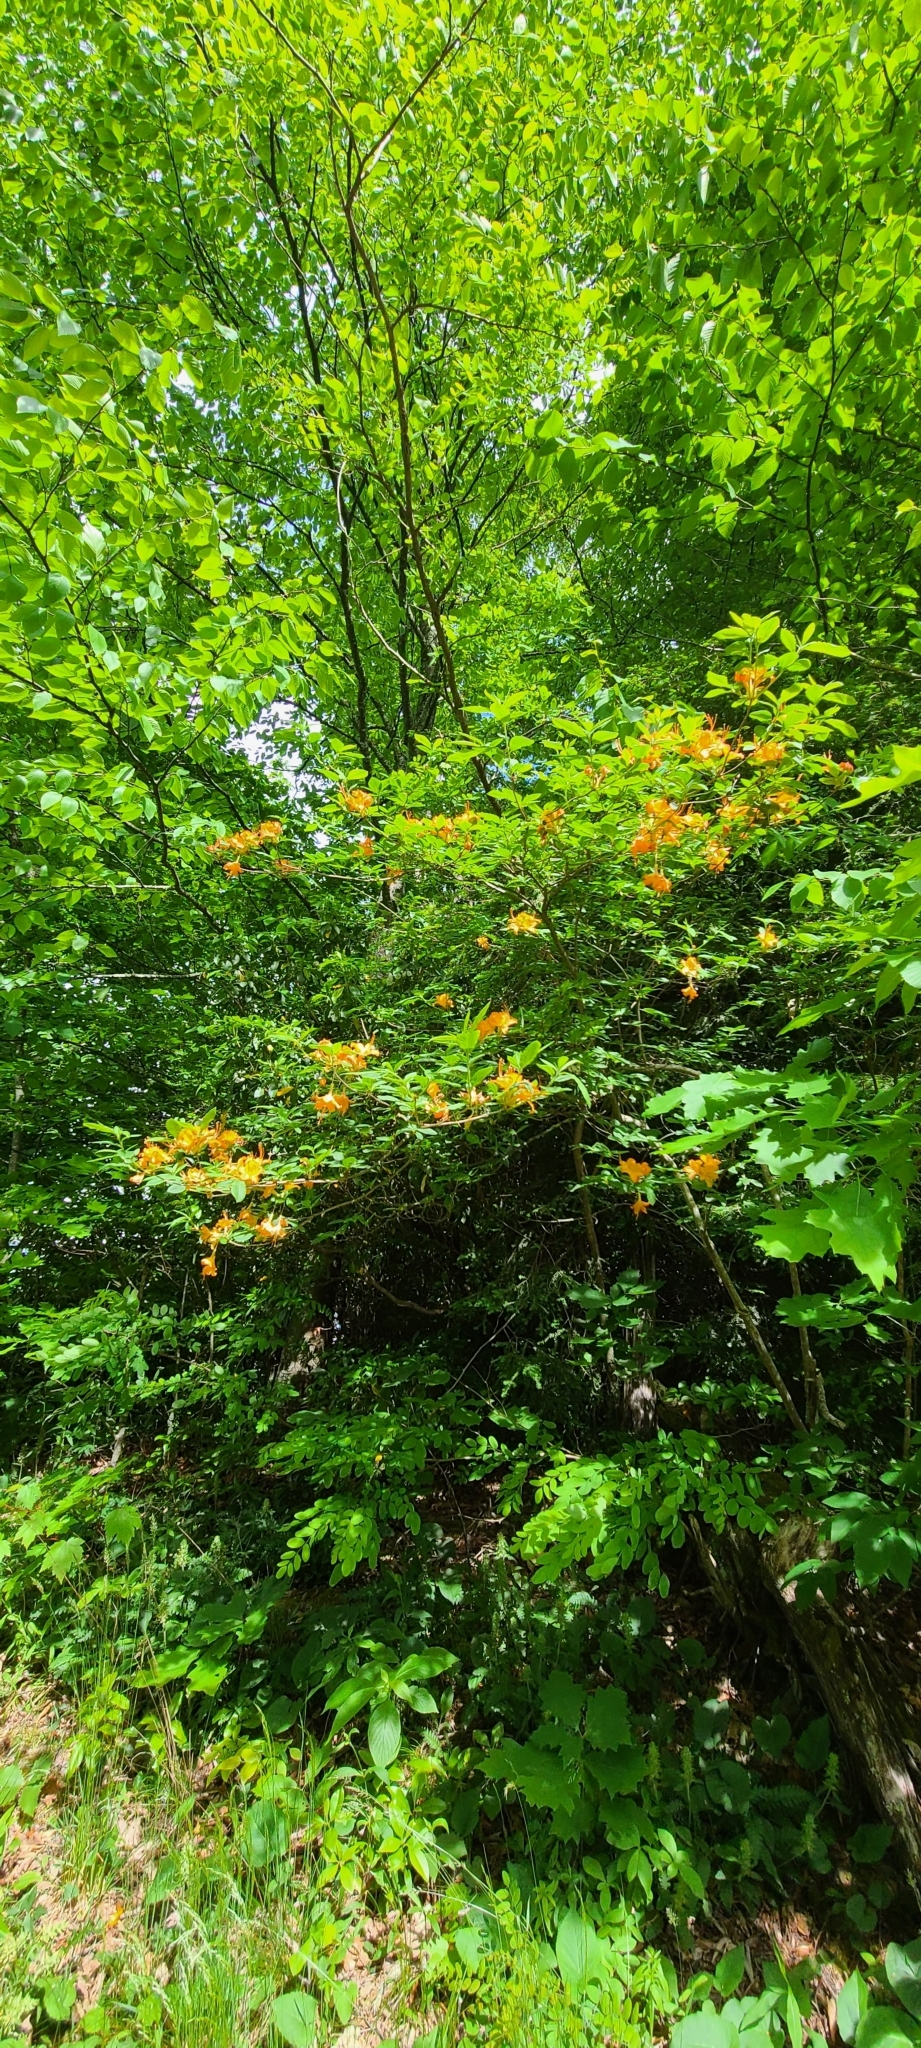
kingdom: Plantae
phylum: Tracheophyta
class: Magnoliopsida
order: Ericales
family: Ericaceae
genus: Rhododendron
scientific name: Rhododendron calendulaceum
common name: Flame azalea
